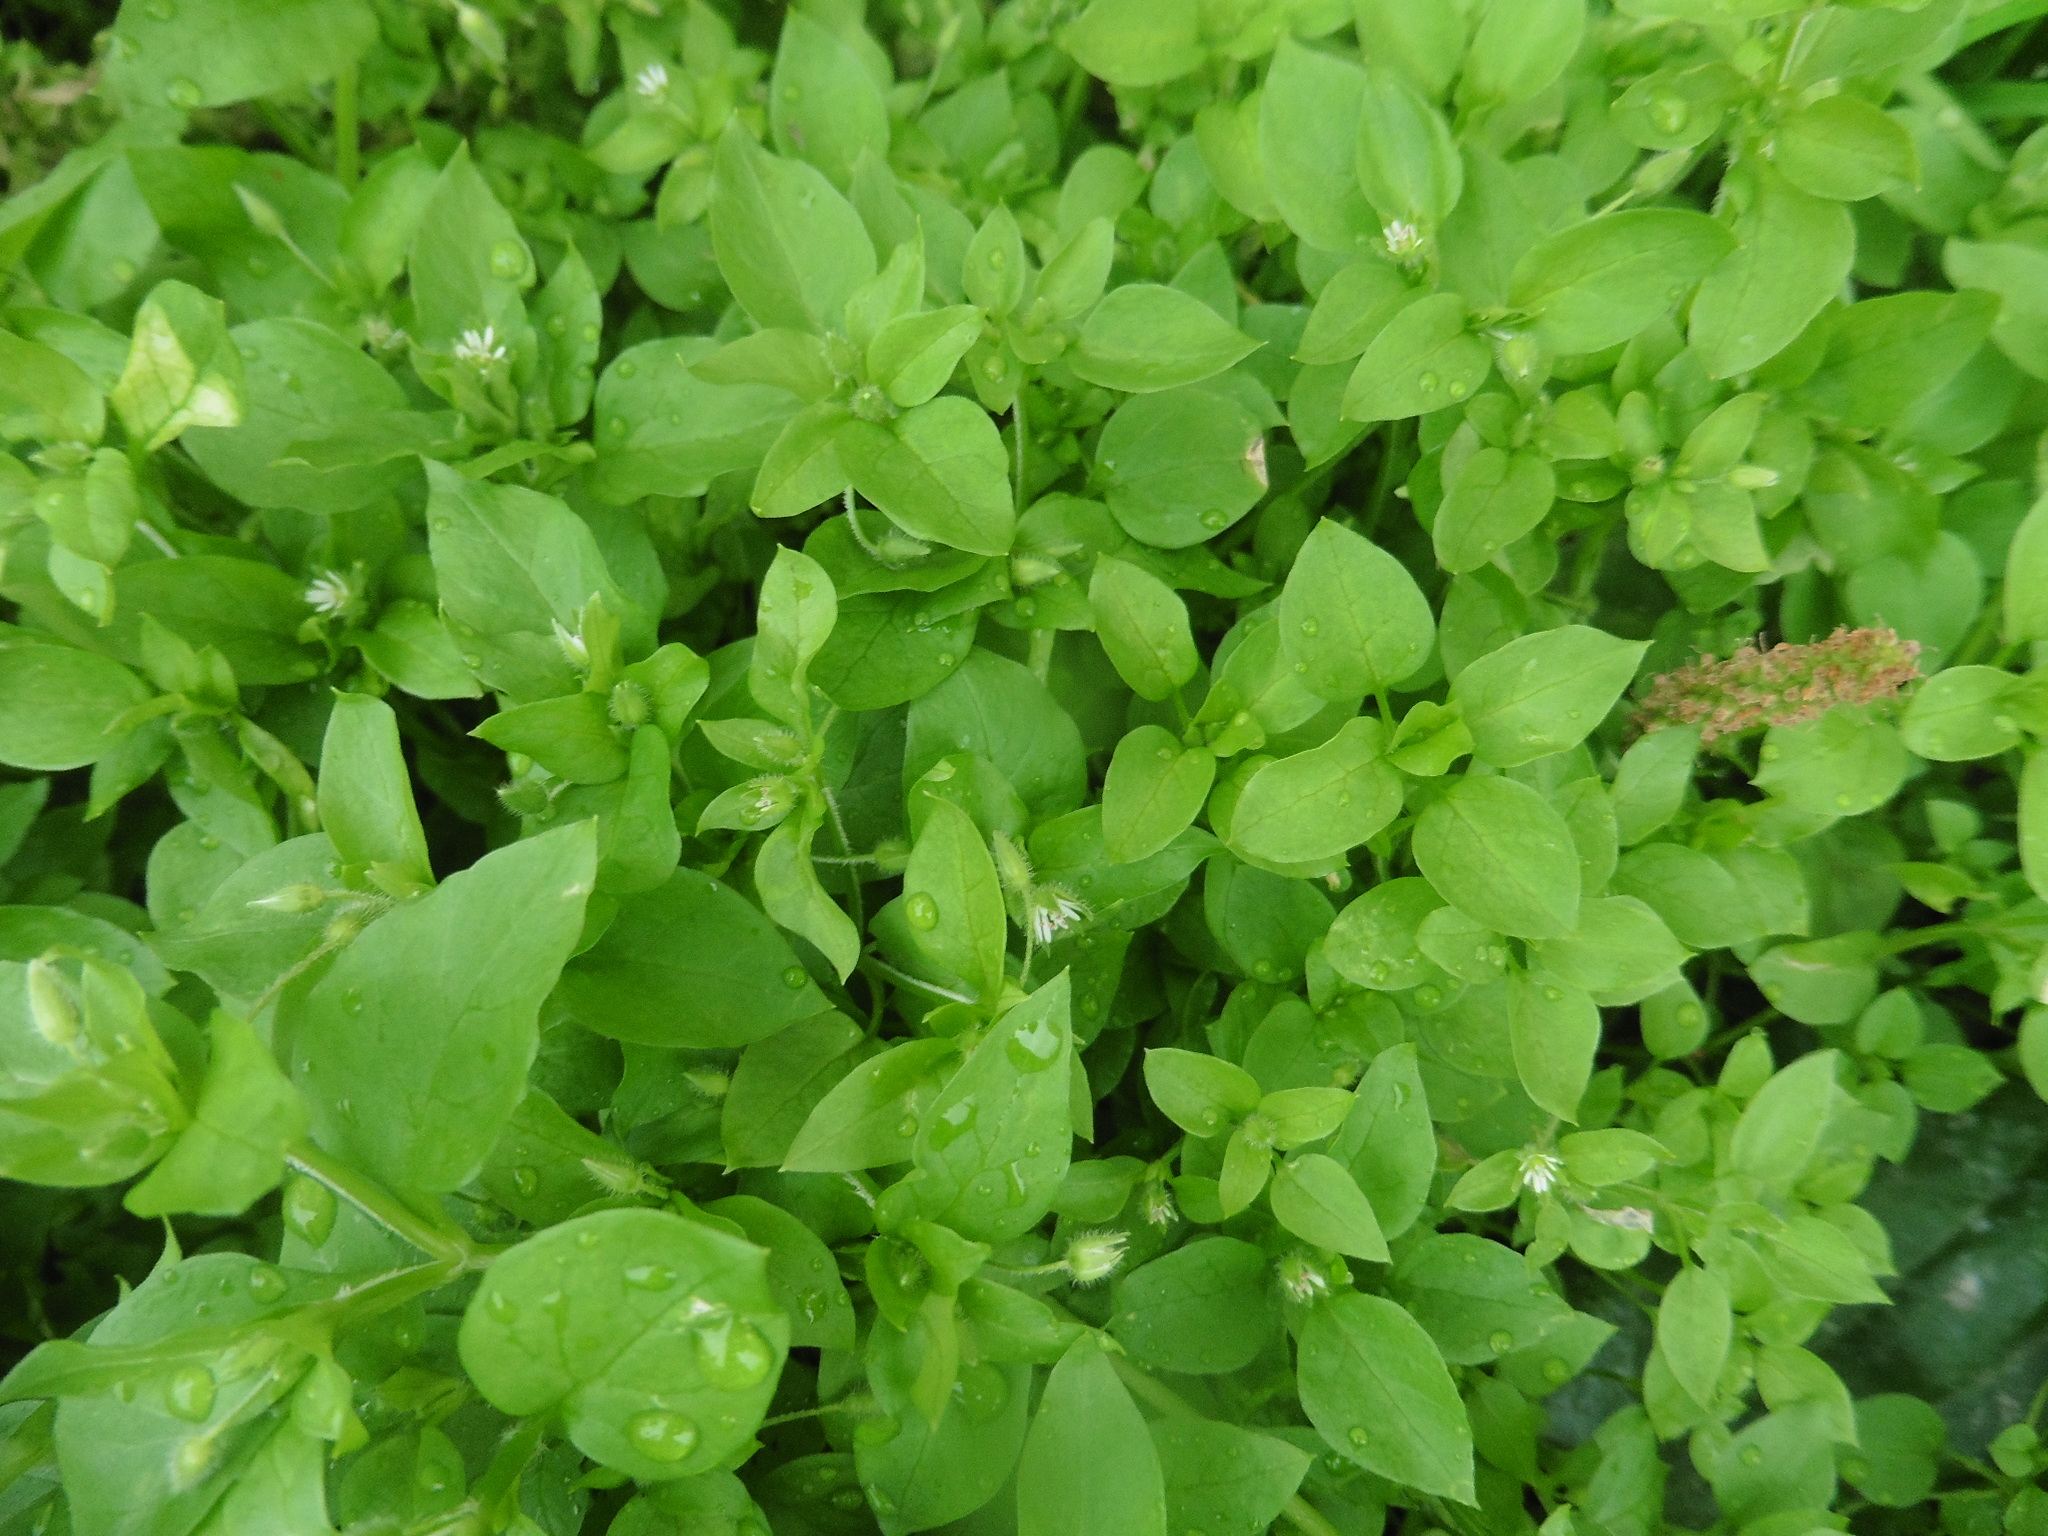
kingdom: Plantae
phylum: Tracheophyta
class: Magnoliopsida
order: Caryophyllales
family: Caryophyllaceae
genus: Stellaria
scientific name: Stellaria media
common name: Common chickweed
